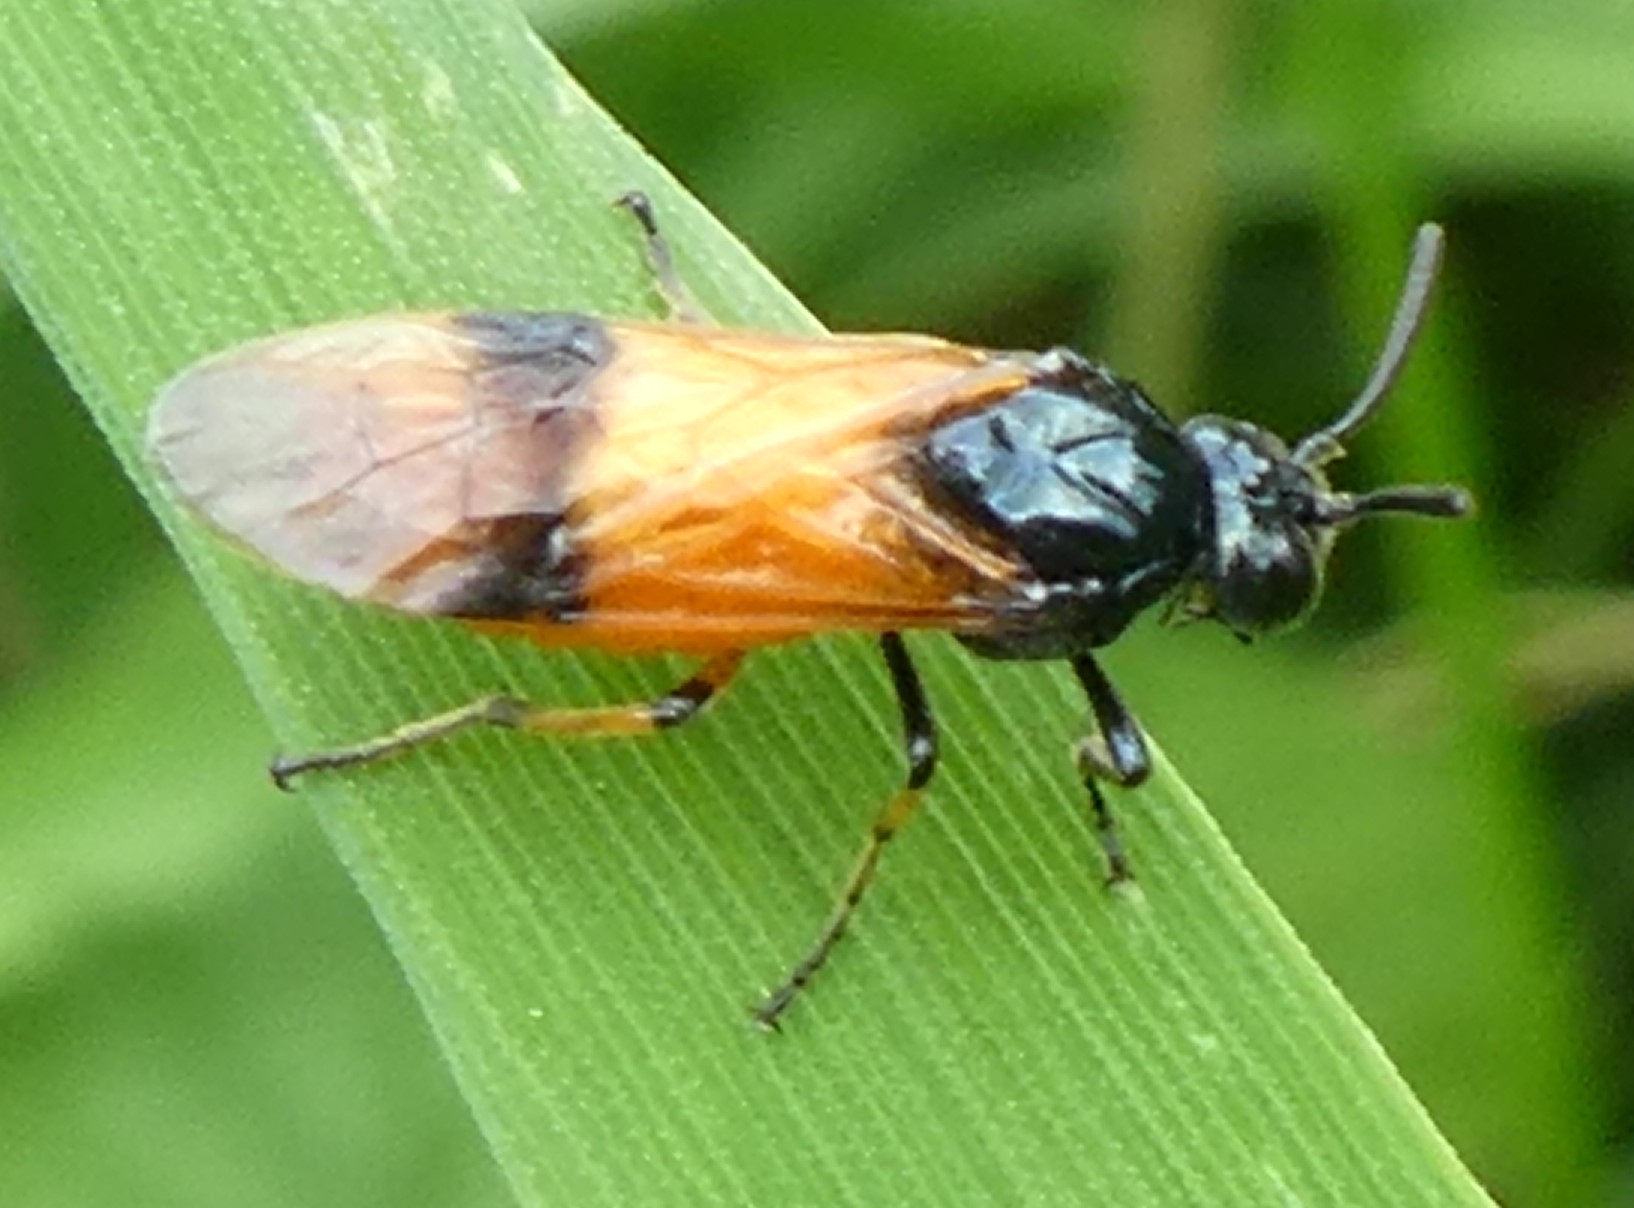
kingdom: Animalia
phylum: Arthropoda
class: Insecta
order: Hymenoptera
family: Argidae
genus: Arge
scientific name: Arge cyanocrocea
